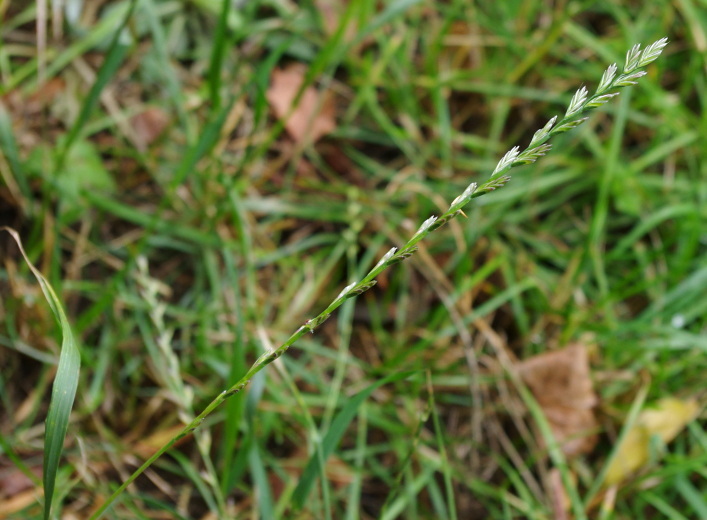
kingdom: Plantae
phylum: Tracheophyta
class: Liliopsida
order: Poales
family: Poaceae
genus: Lolium
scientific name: Lolium perenne
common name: Perennial ryegrass
